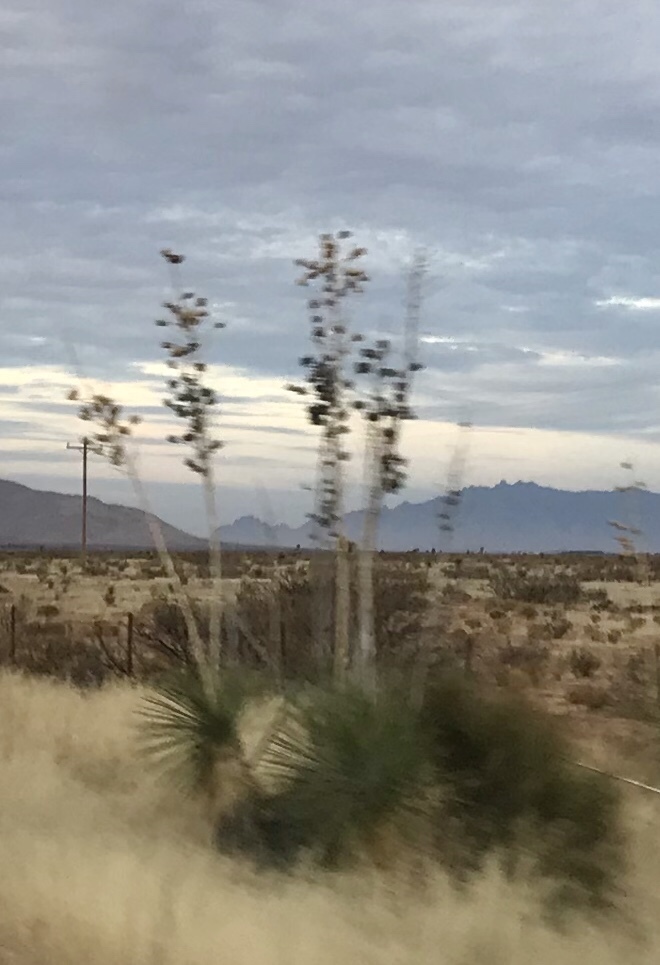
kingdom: Plantae
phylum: Tracheophyta
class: Liliopsida
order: Asparagales
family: Asparagaceae
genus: Yucca
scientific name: Yucca elata
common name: Palmella
